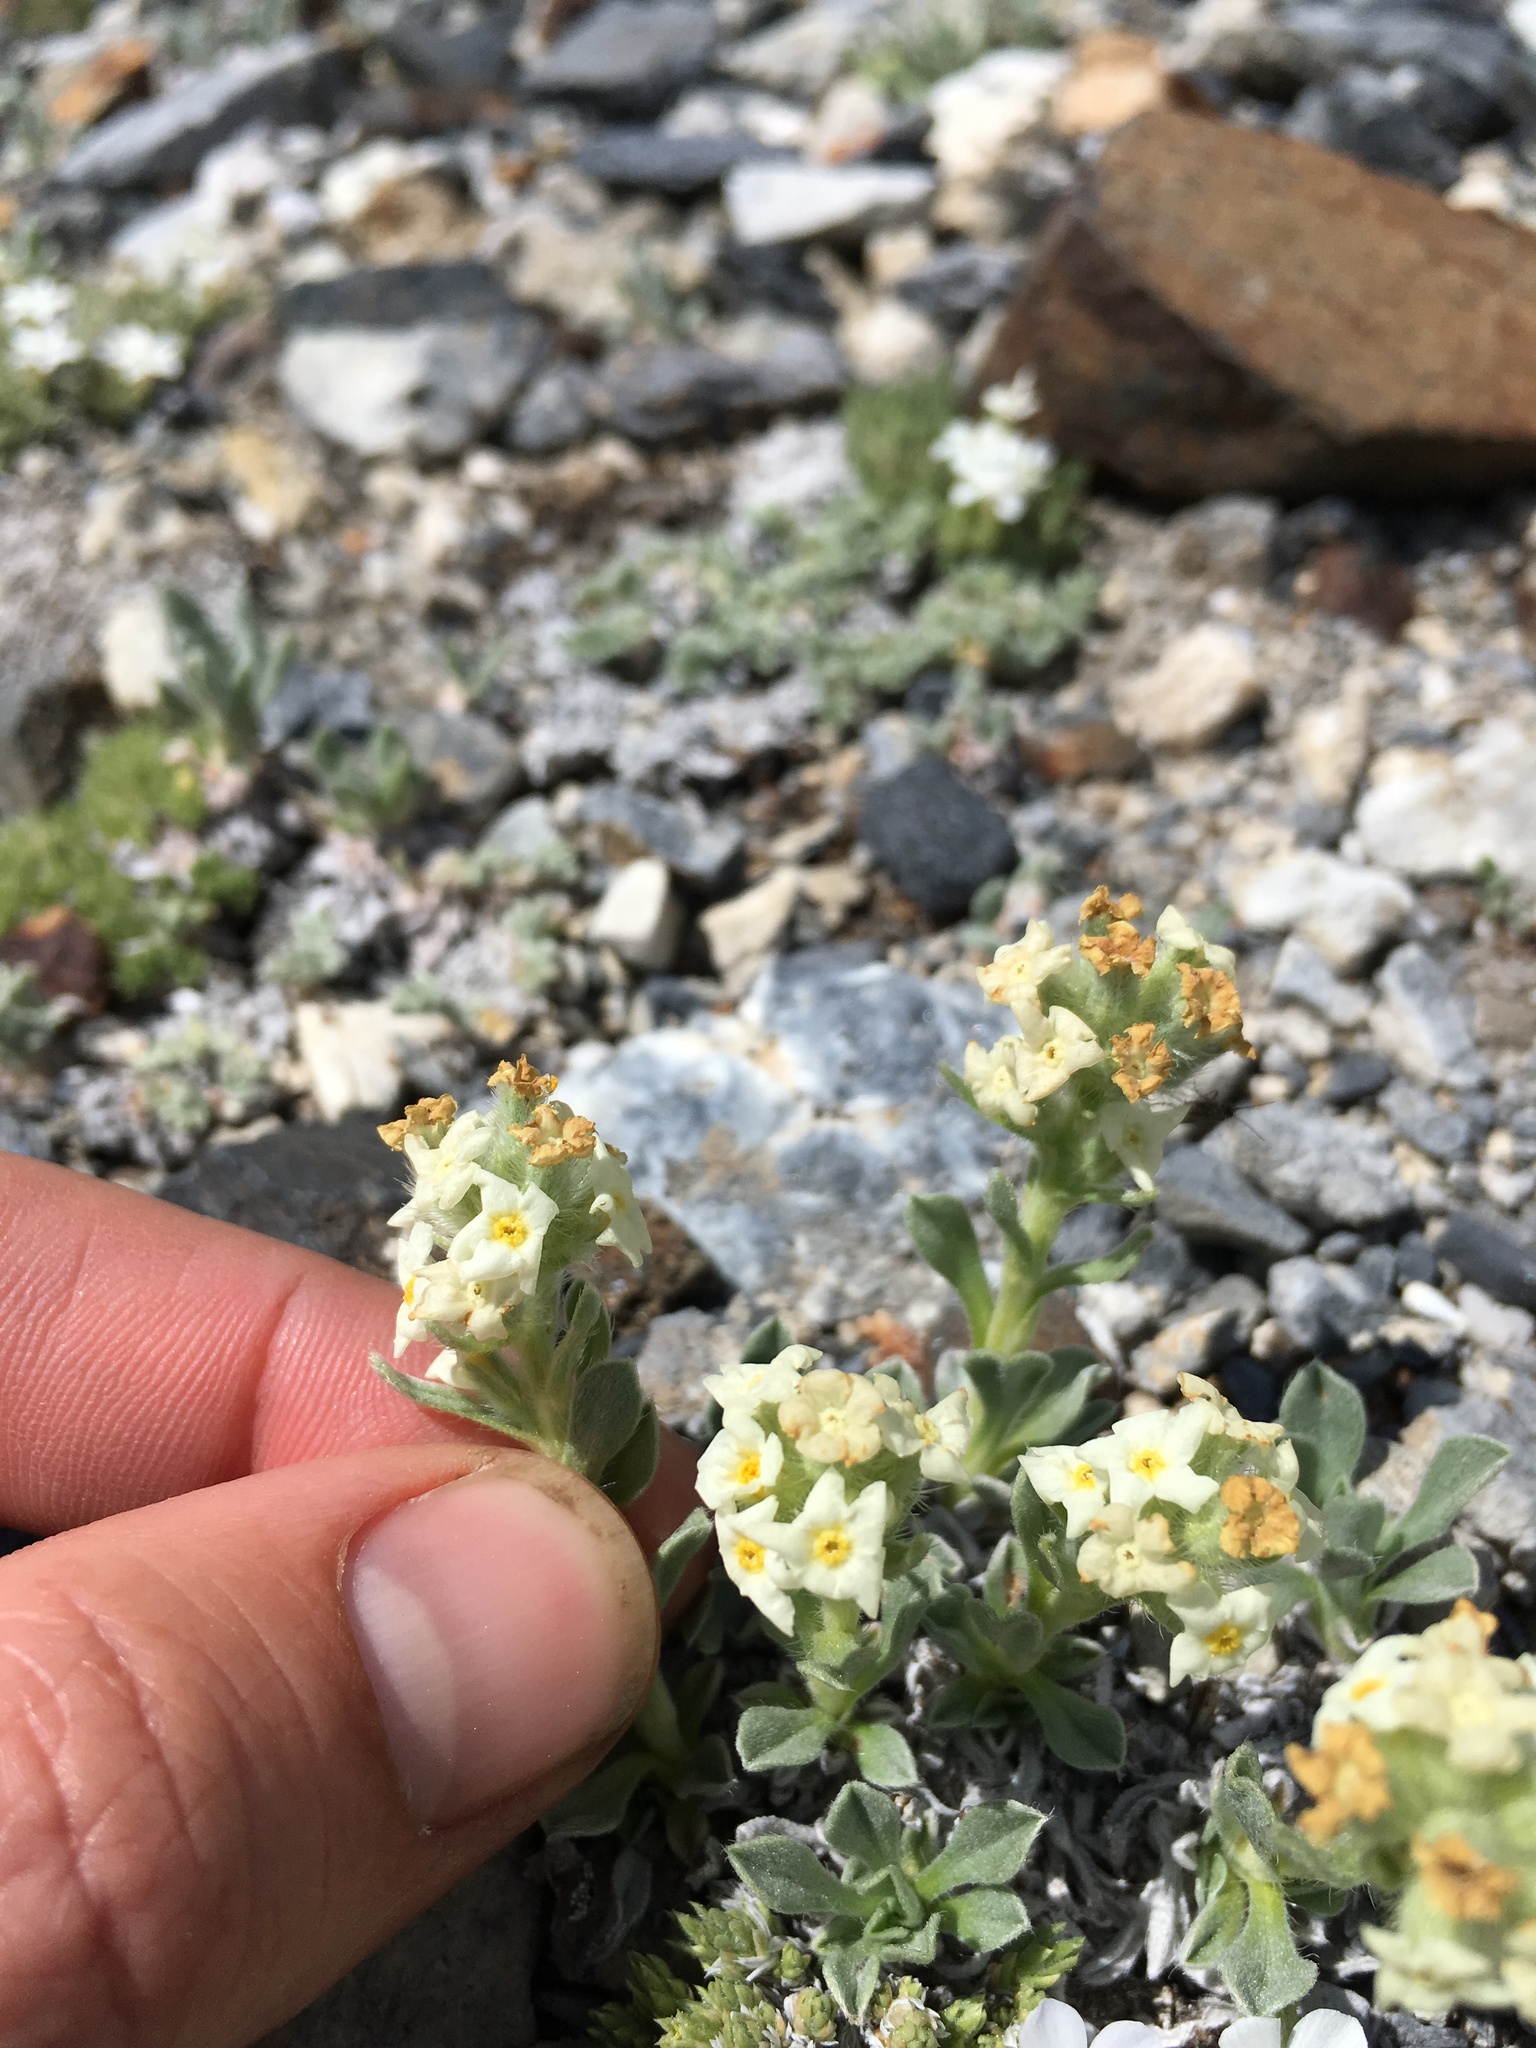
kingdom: Plantae
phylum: Tracheophyta
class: Magnoliopsida
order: Boraginales
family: Boraginaceae
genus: Oreocarya
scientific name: Oreocarya humilis
